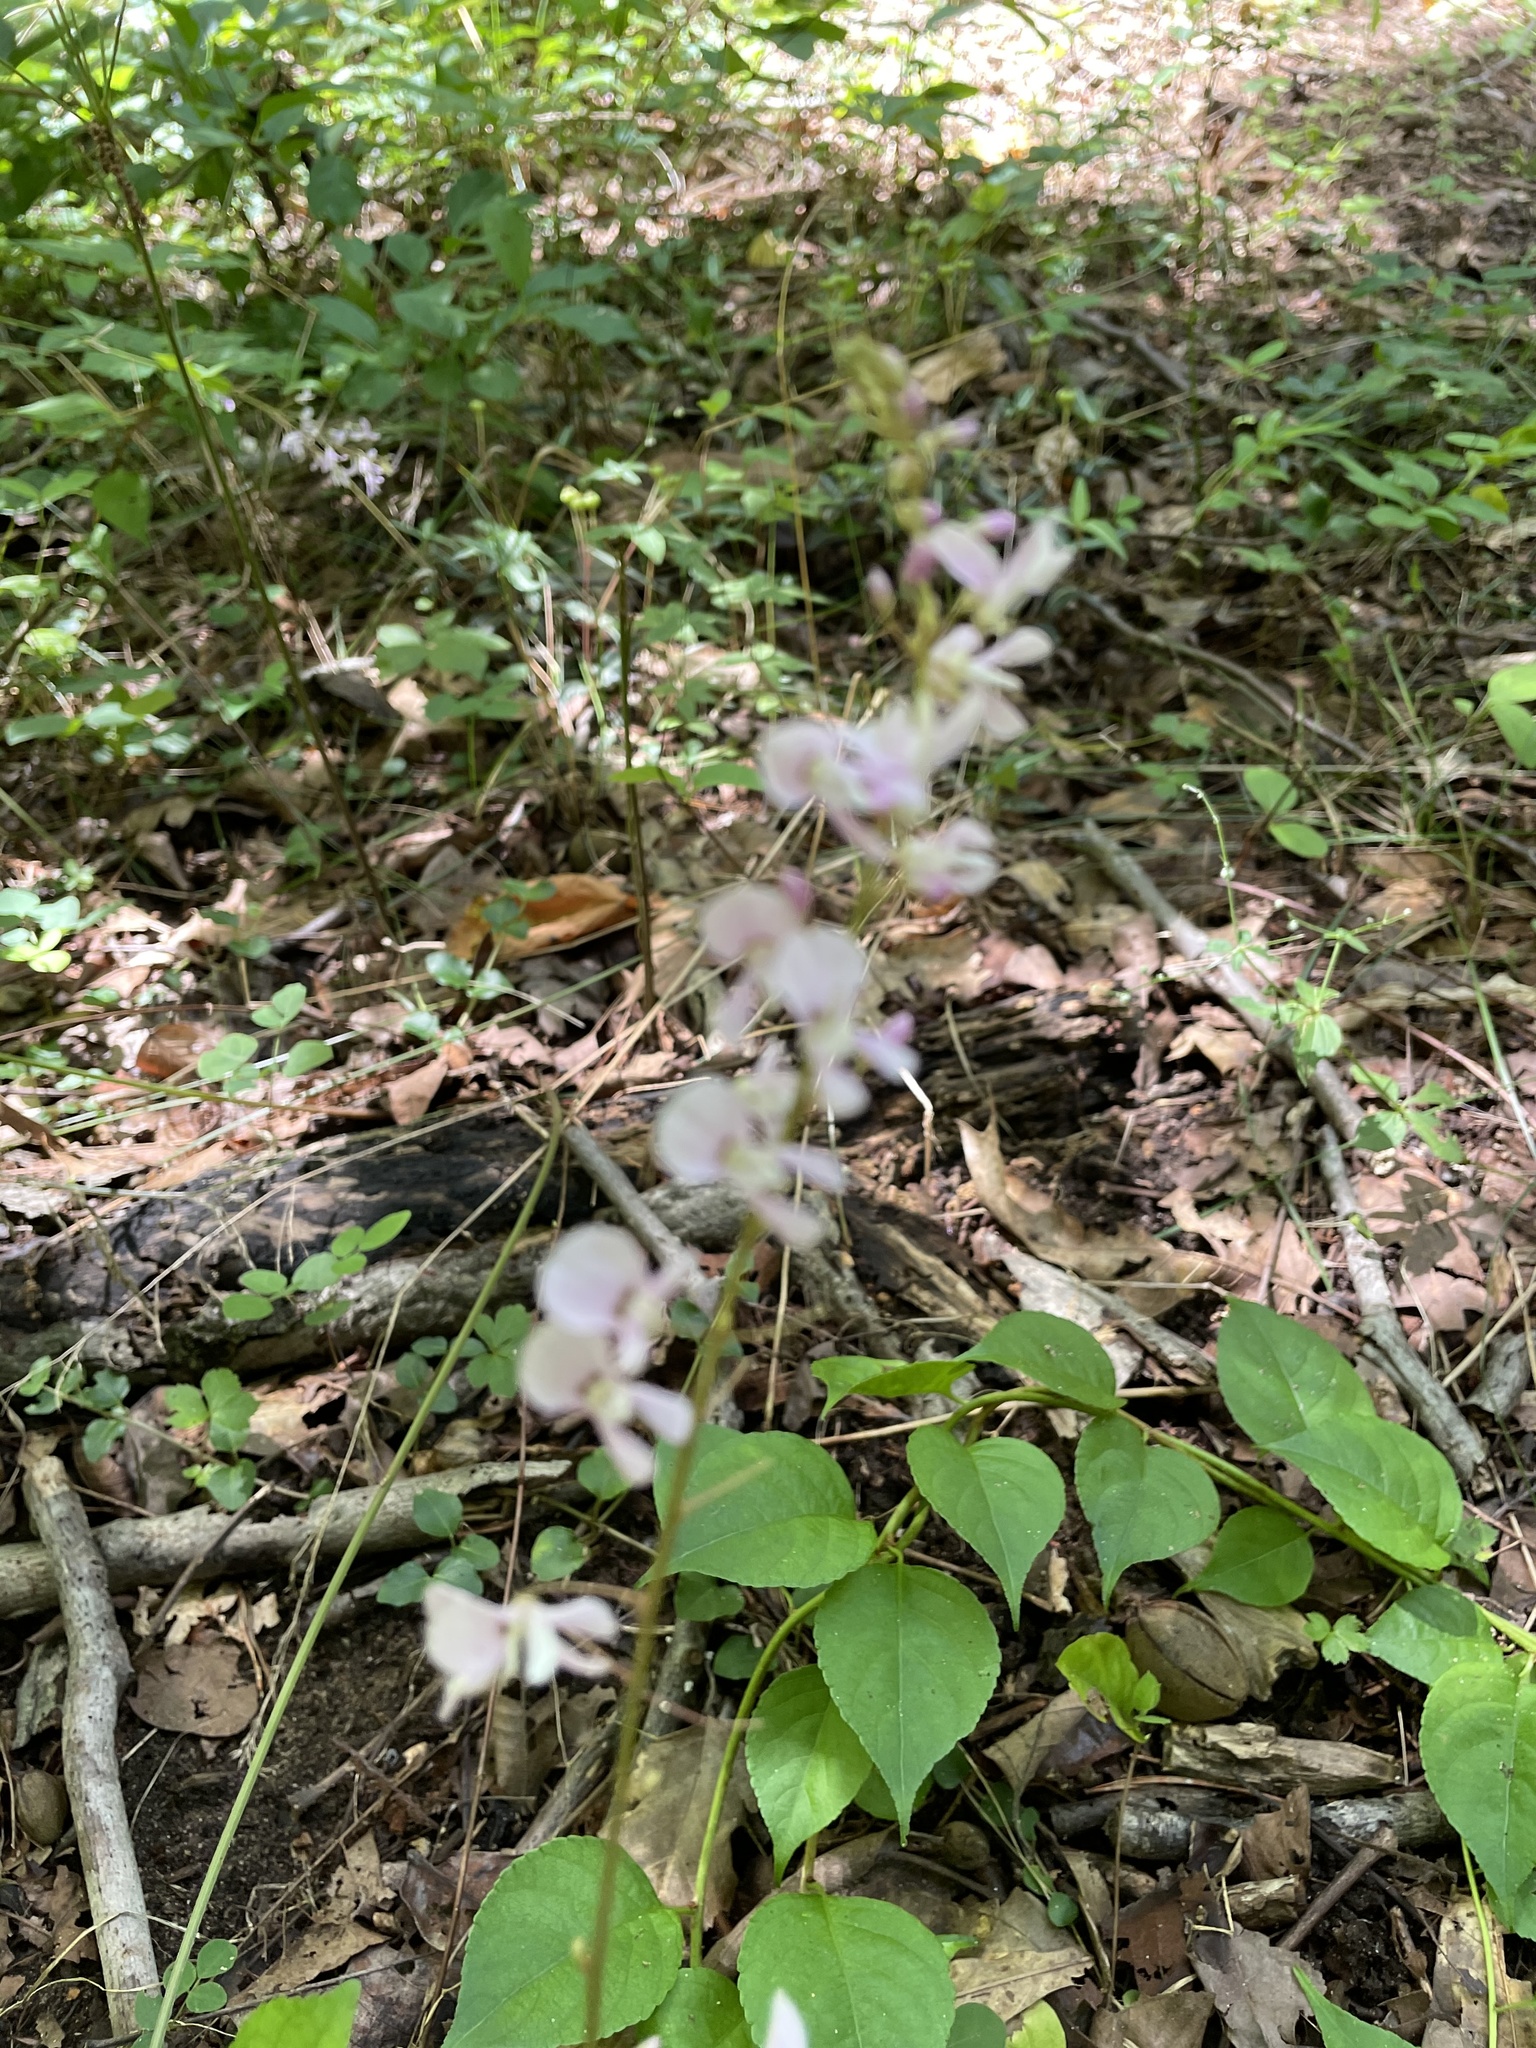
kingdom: Plantae
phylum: Tracheophyta
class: Magnoliopsida
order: Fabales
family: Fabaceae
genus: Hylodesmum
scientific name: Hylodesmum nudiflorum
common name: Bare-stemmed tick-trefoil
